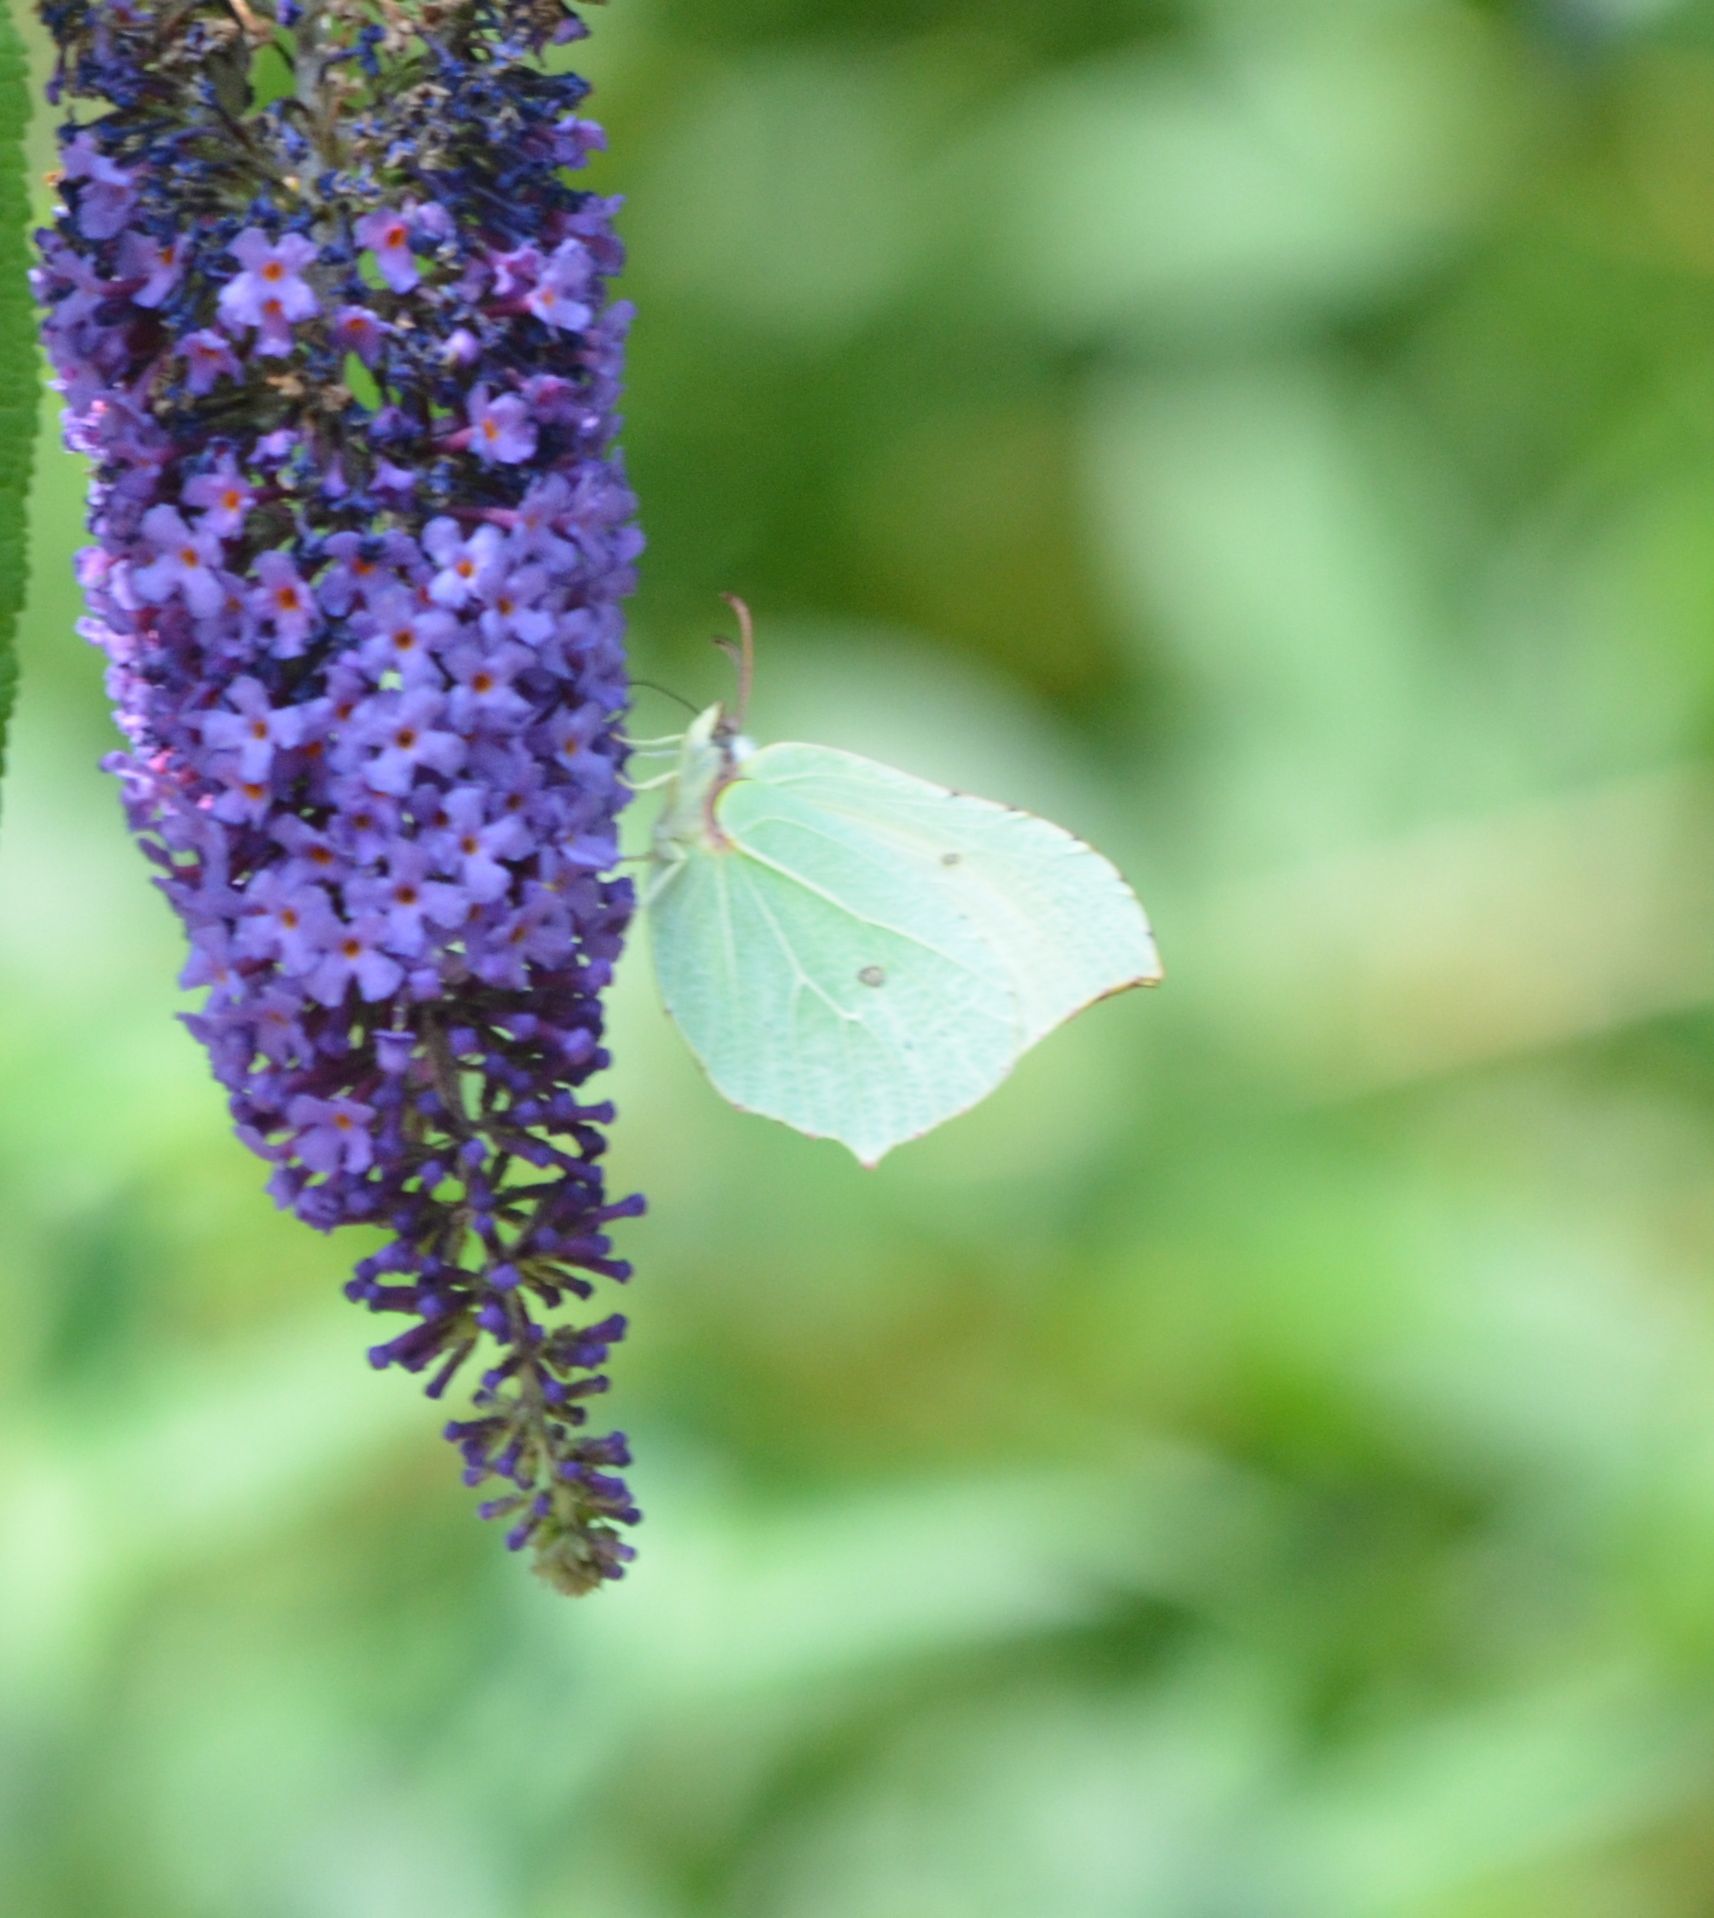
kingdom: Animalia
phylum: Arthropoda
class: Insecta
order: Lepidoptera
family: Pieridae
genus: Gonepteryx
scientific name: Gonepteryx rhamni
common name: Brimstone
